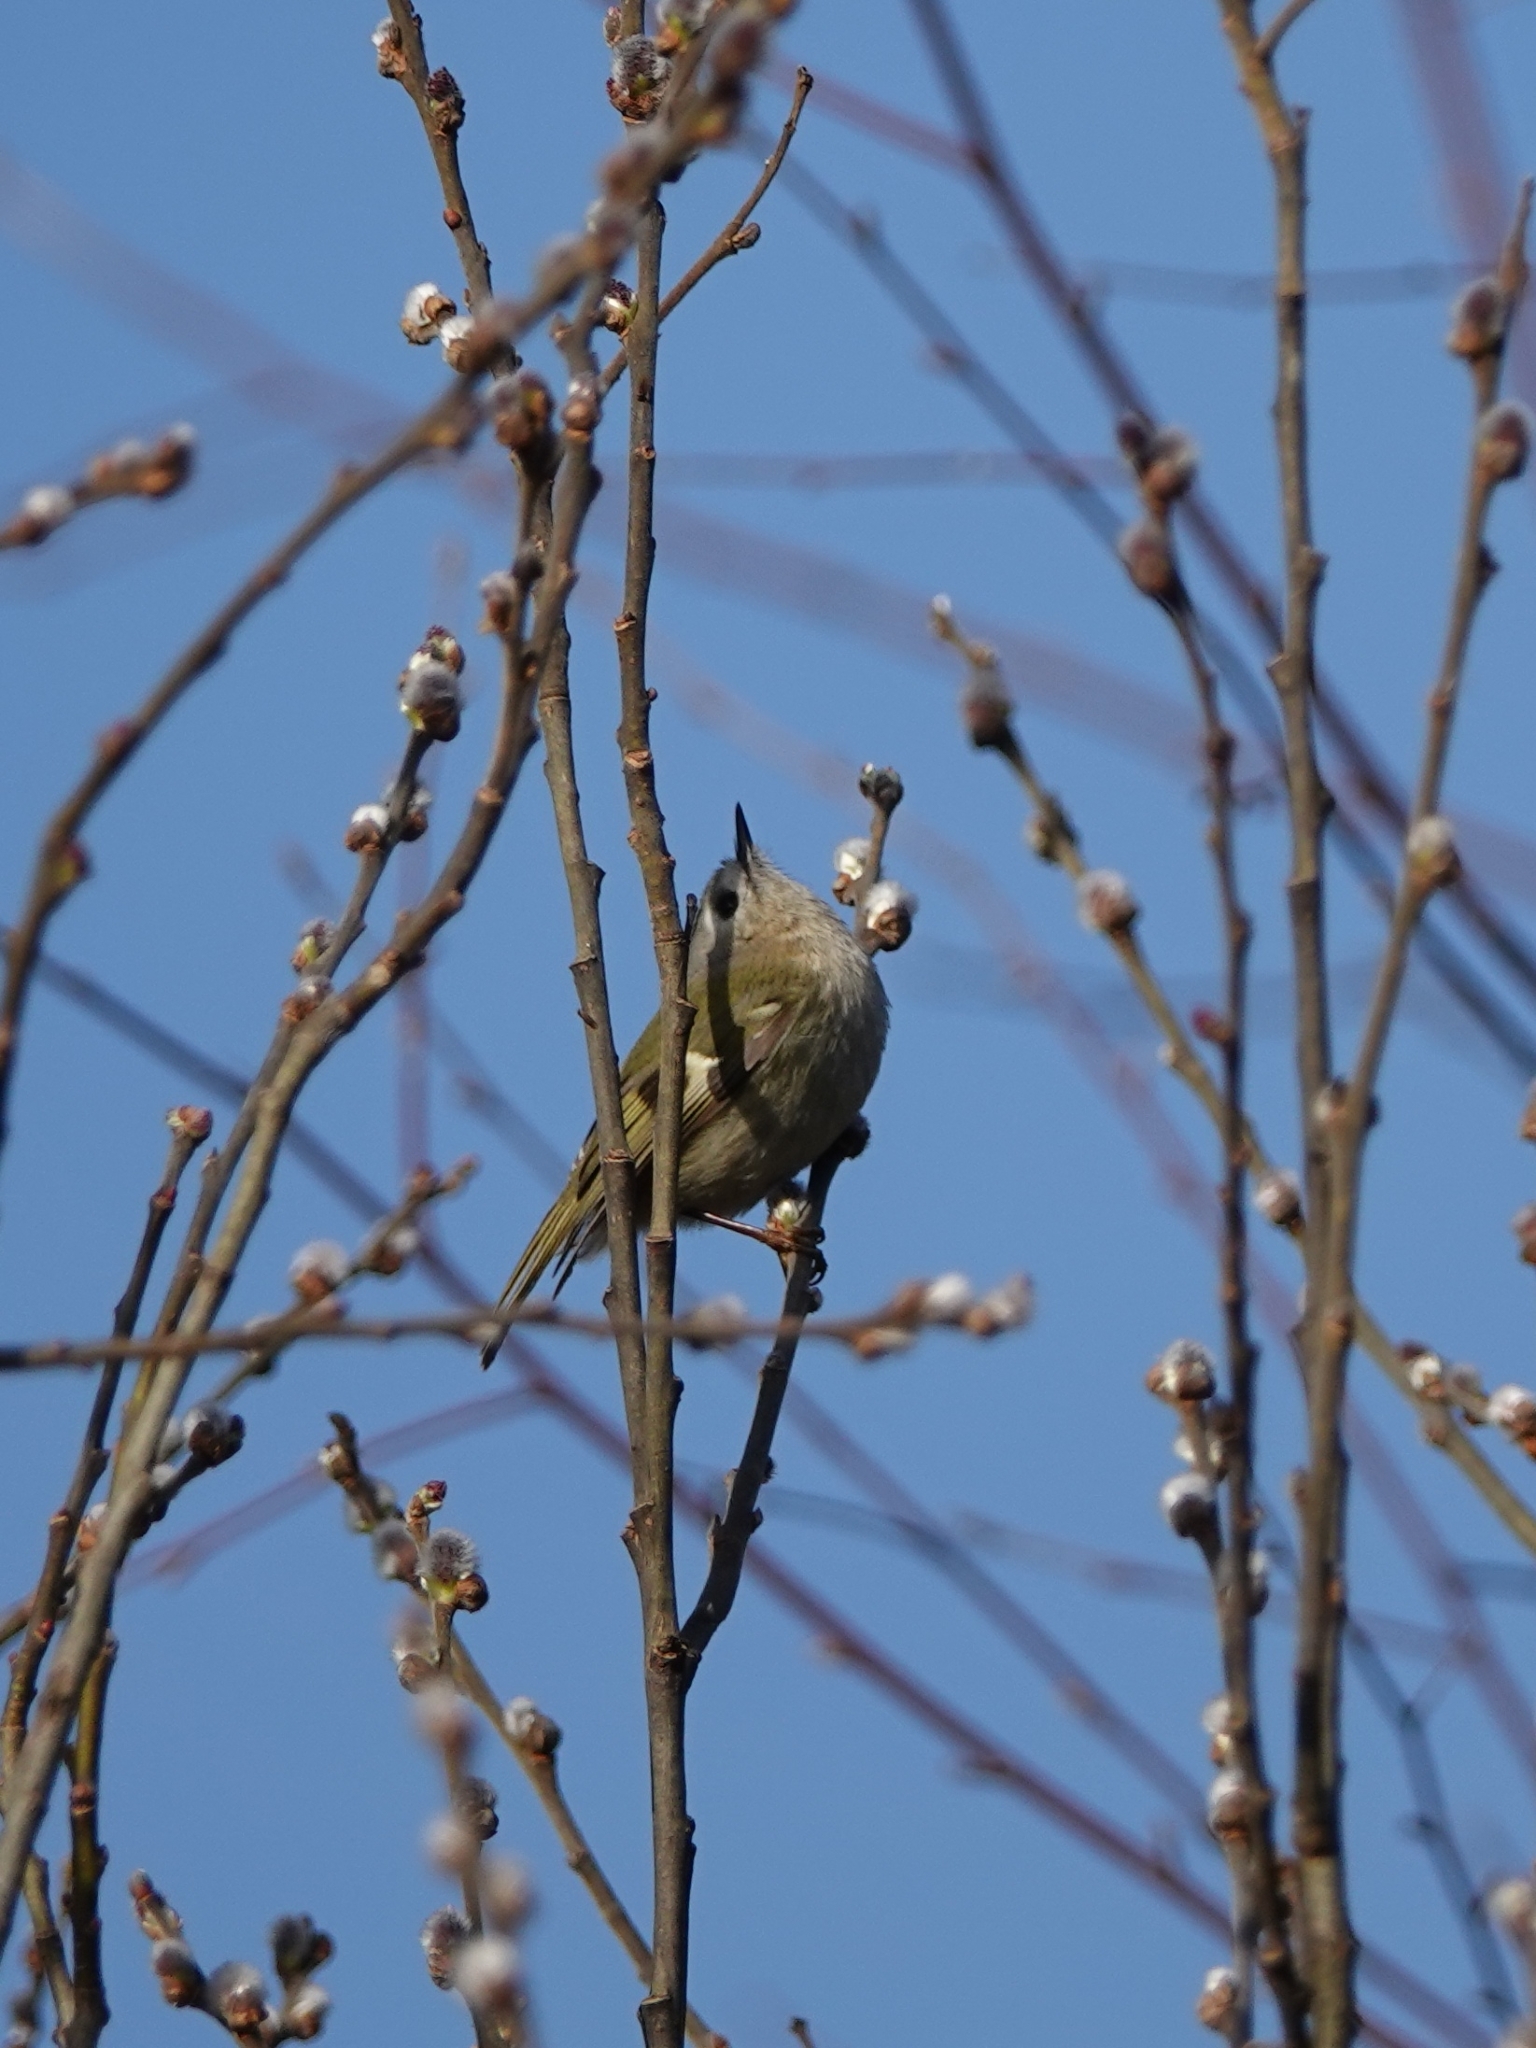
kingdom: Animalia
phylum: Chordata
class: Aves
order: Passeriformes
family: Regulidae
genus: Regulus
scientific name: Regulus regulus
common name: Goldcrest
